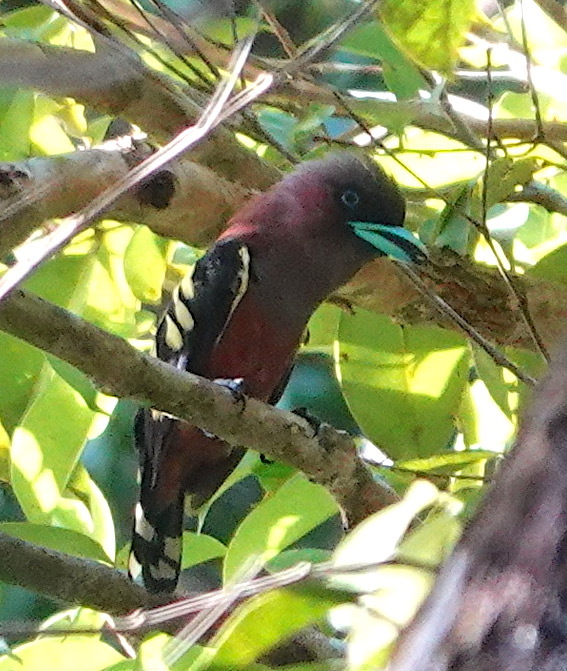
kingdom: Animalia
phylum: Chordata
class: Aves
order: Passeriformes
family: Eurylaimidae
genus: Eurylaimus
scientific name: Eurylaimus javanicus
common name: Banded broadbill
